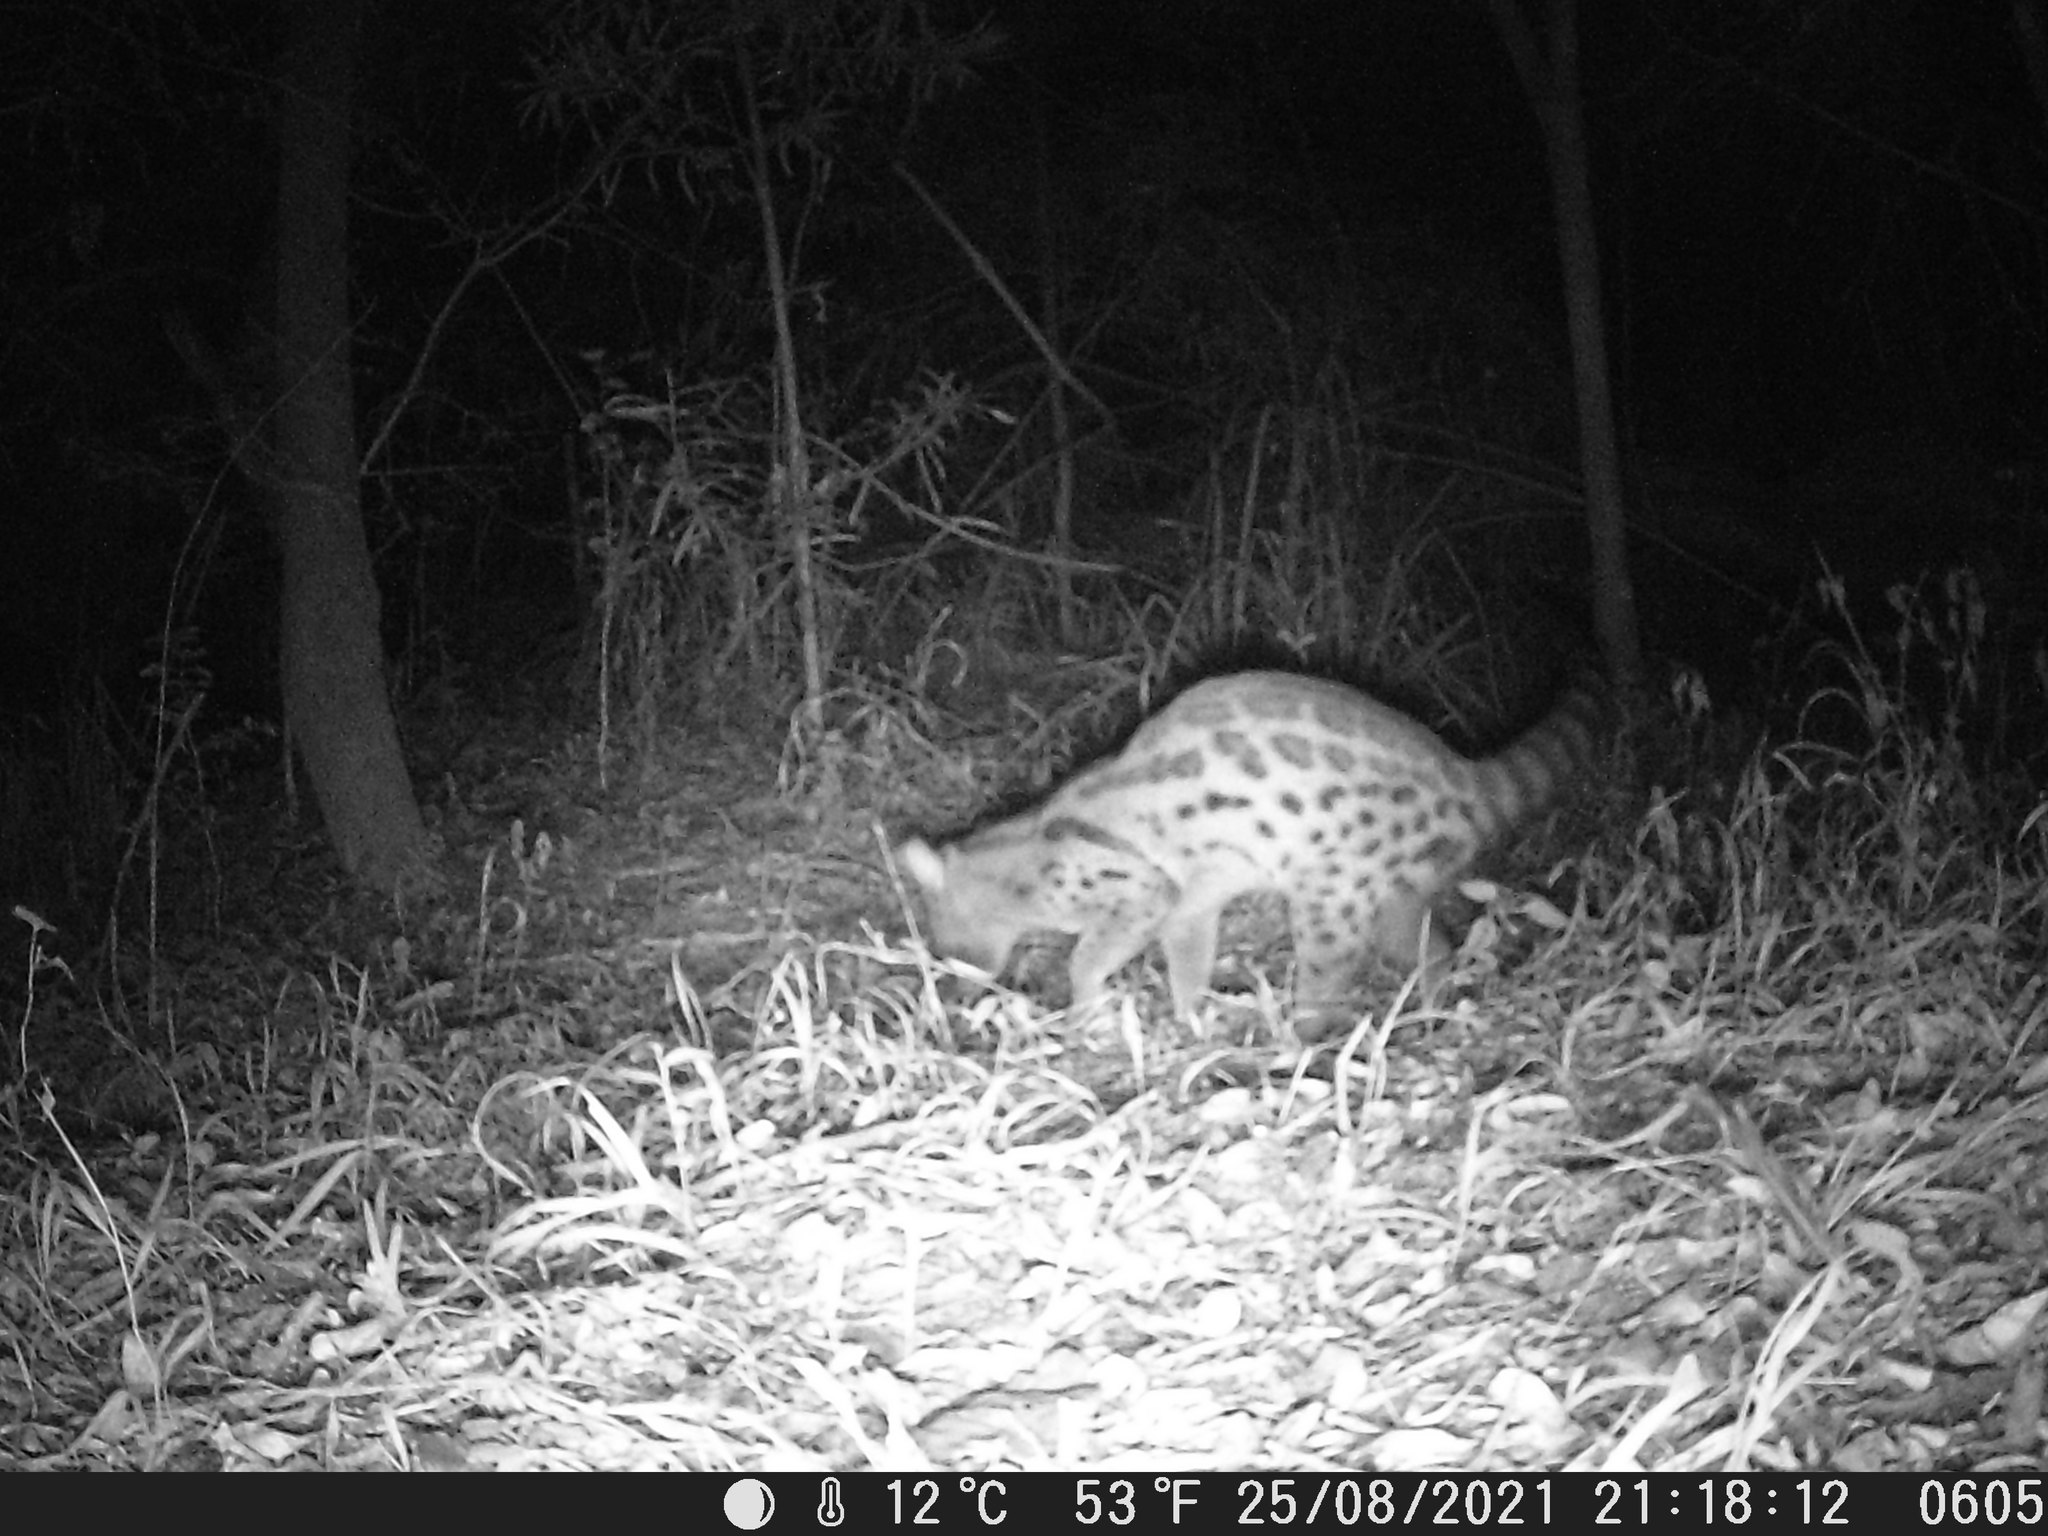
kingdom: Animalia
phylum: Chordata
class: Mammalia
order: Carnivora
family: Viverridae
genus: Genetta
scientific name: Genetta maculata
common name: Rusty-spotted genet
